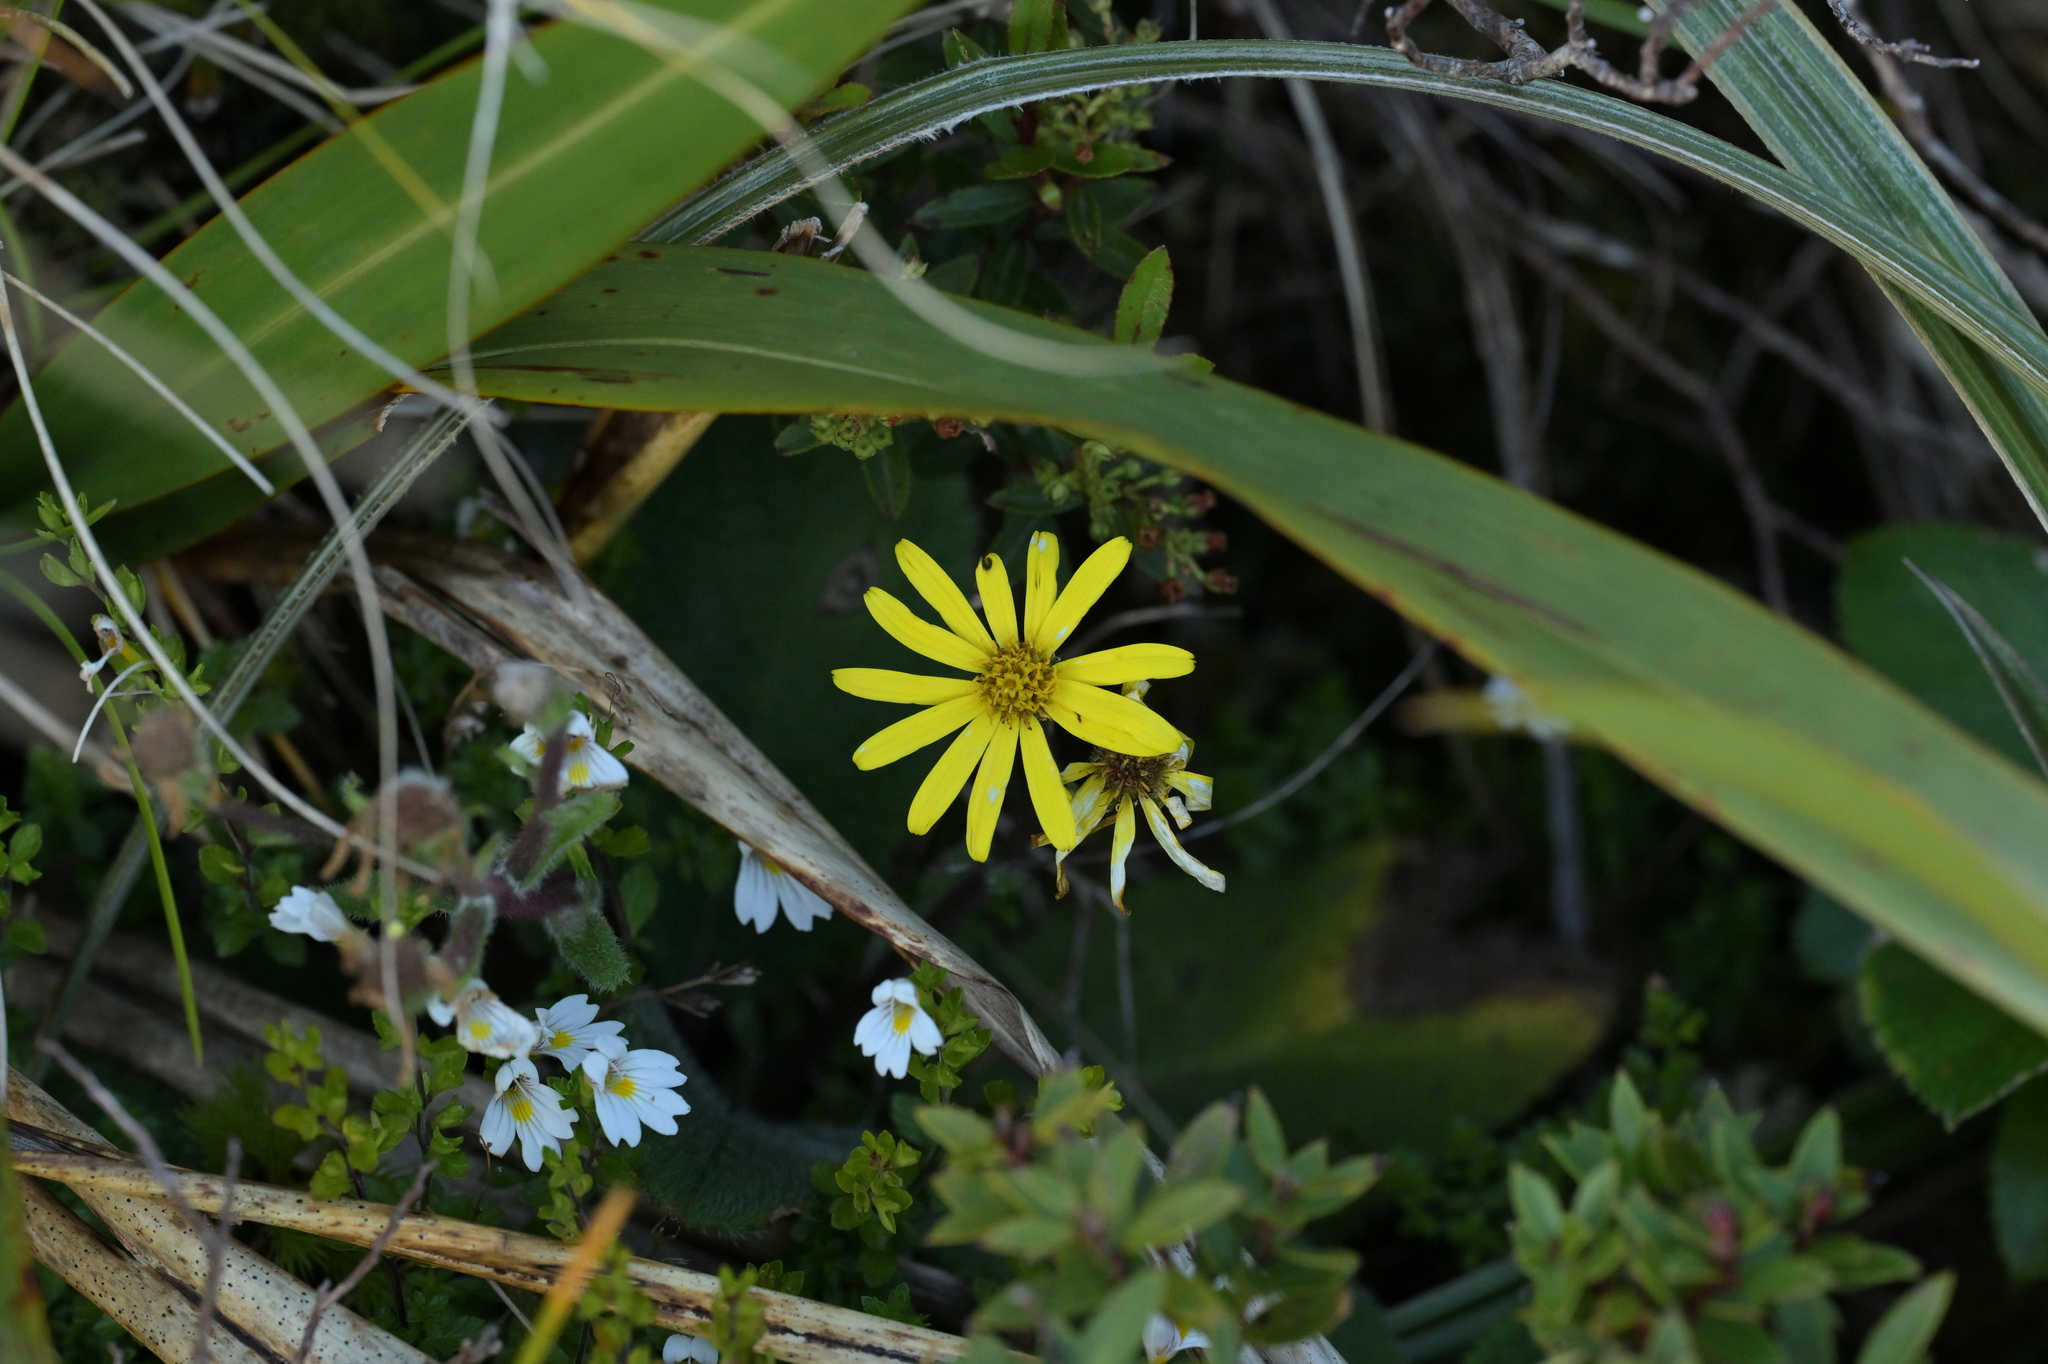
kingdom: Plantae
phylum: Tracheophyta
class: Magnoliopsida
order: Asterales
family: Asteraceae
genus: Brachyglottis
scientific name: Brachyglottis lagopus
